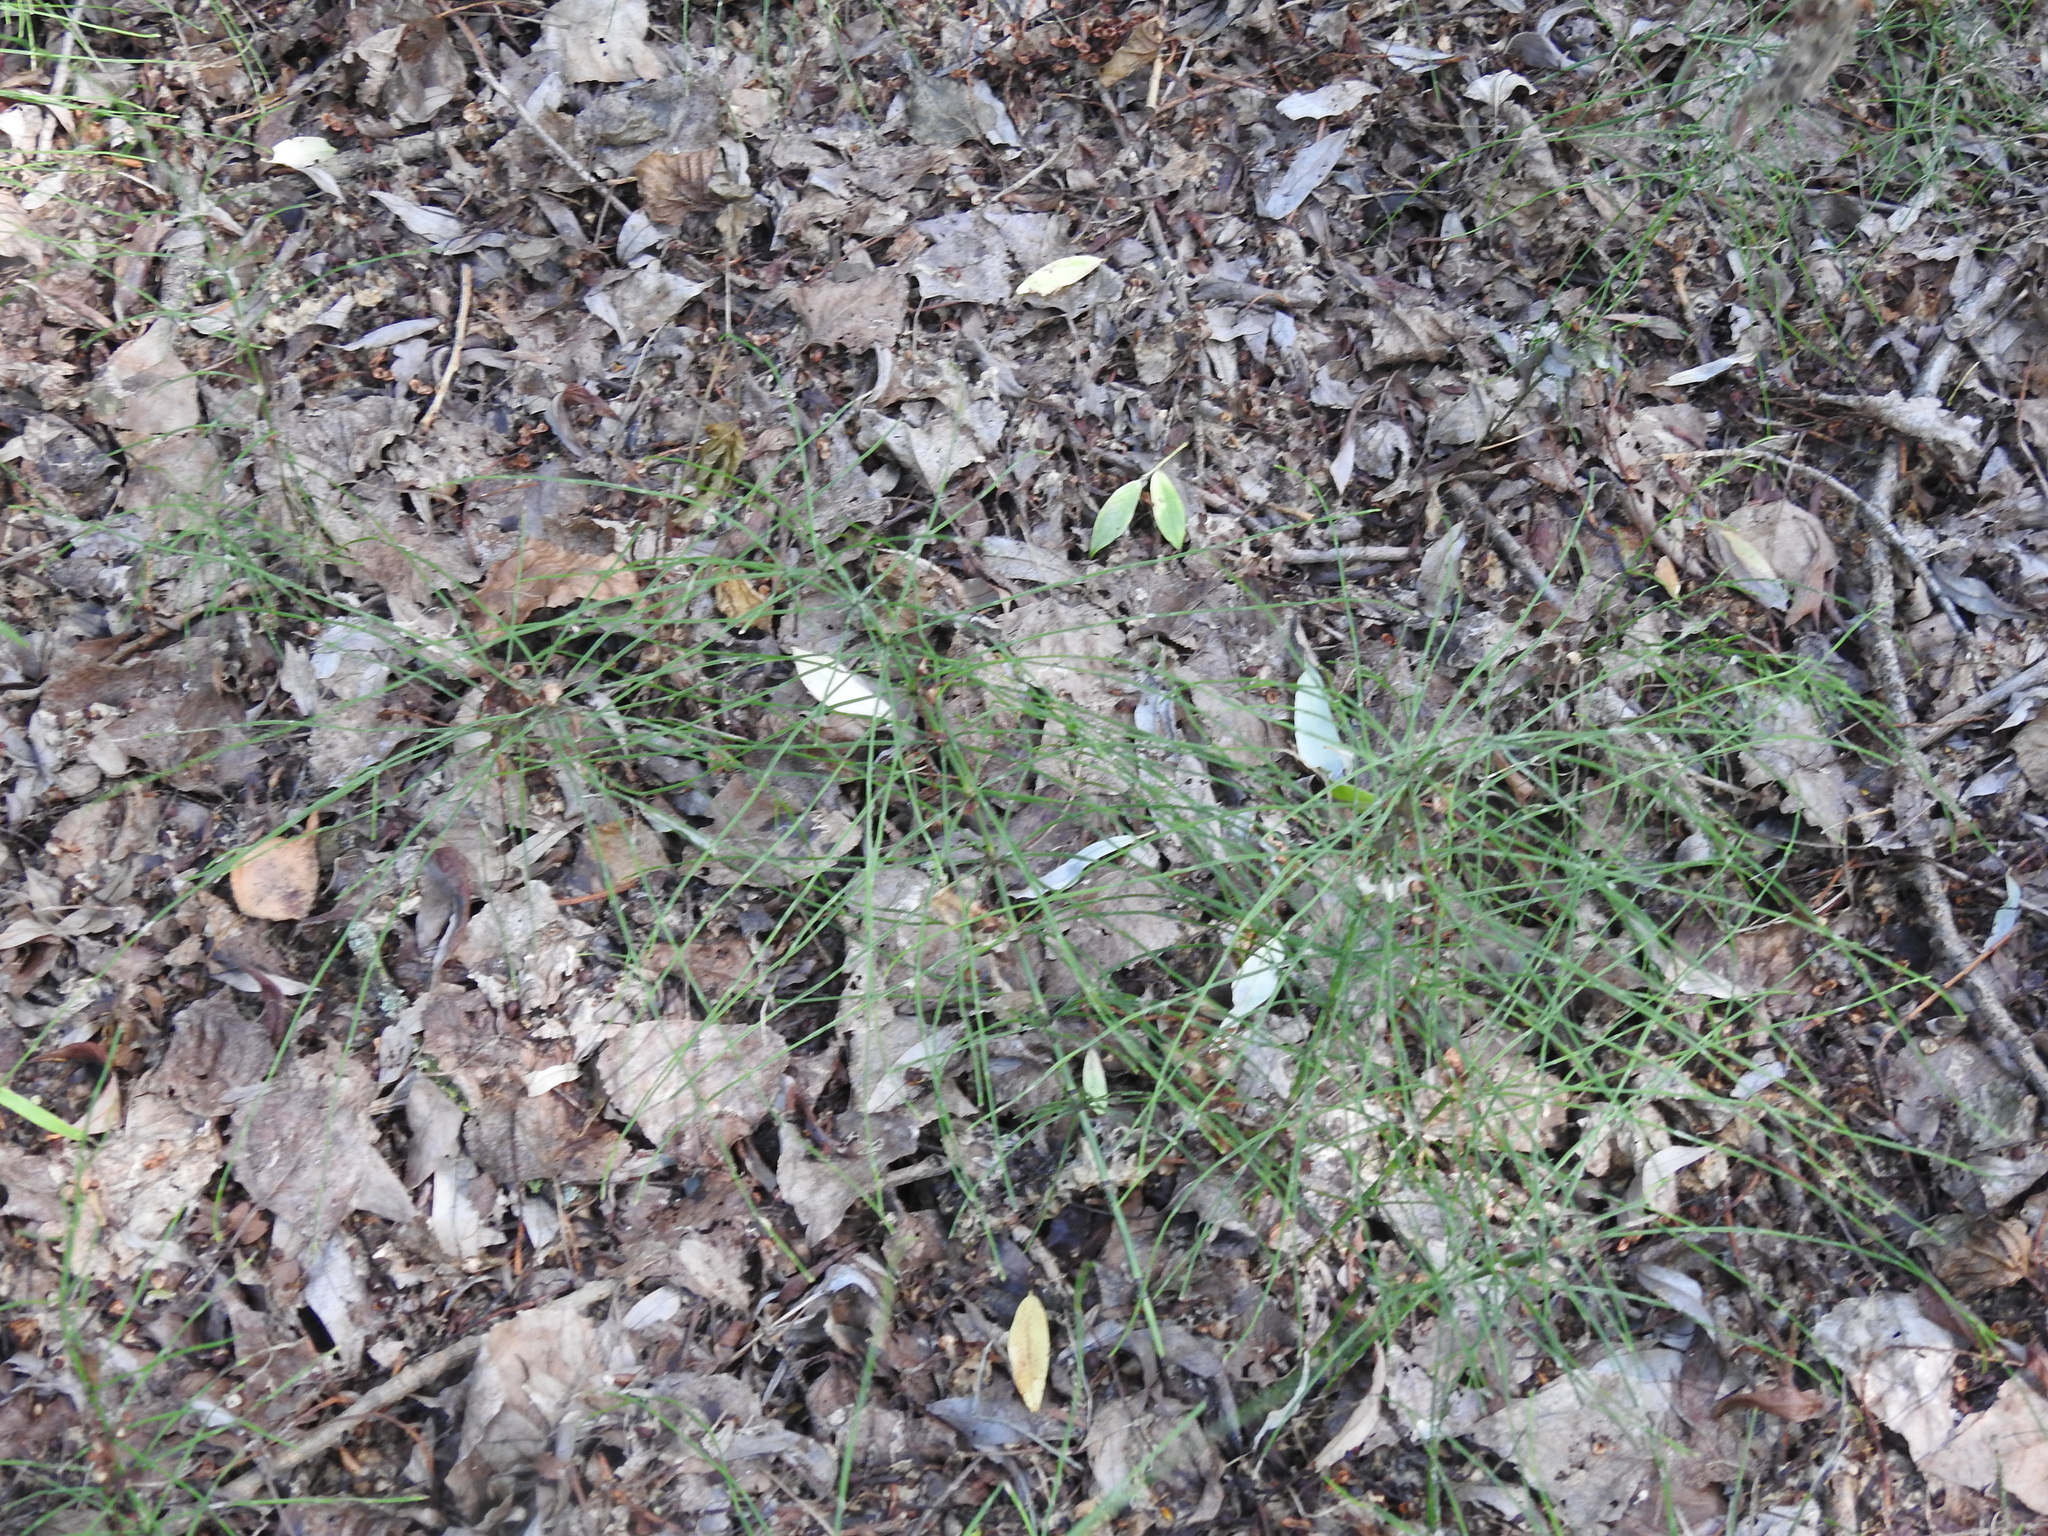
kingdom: Plantae
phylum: Tracheophyta
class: Polypodiopsida
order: Equisetales
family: Equisetaceae
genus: Equisetum
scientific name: Equisetum arvense
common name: Field horsetail
